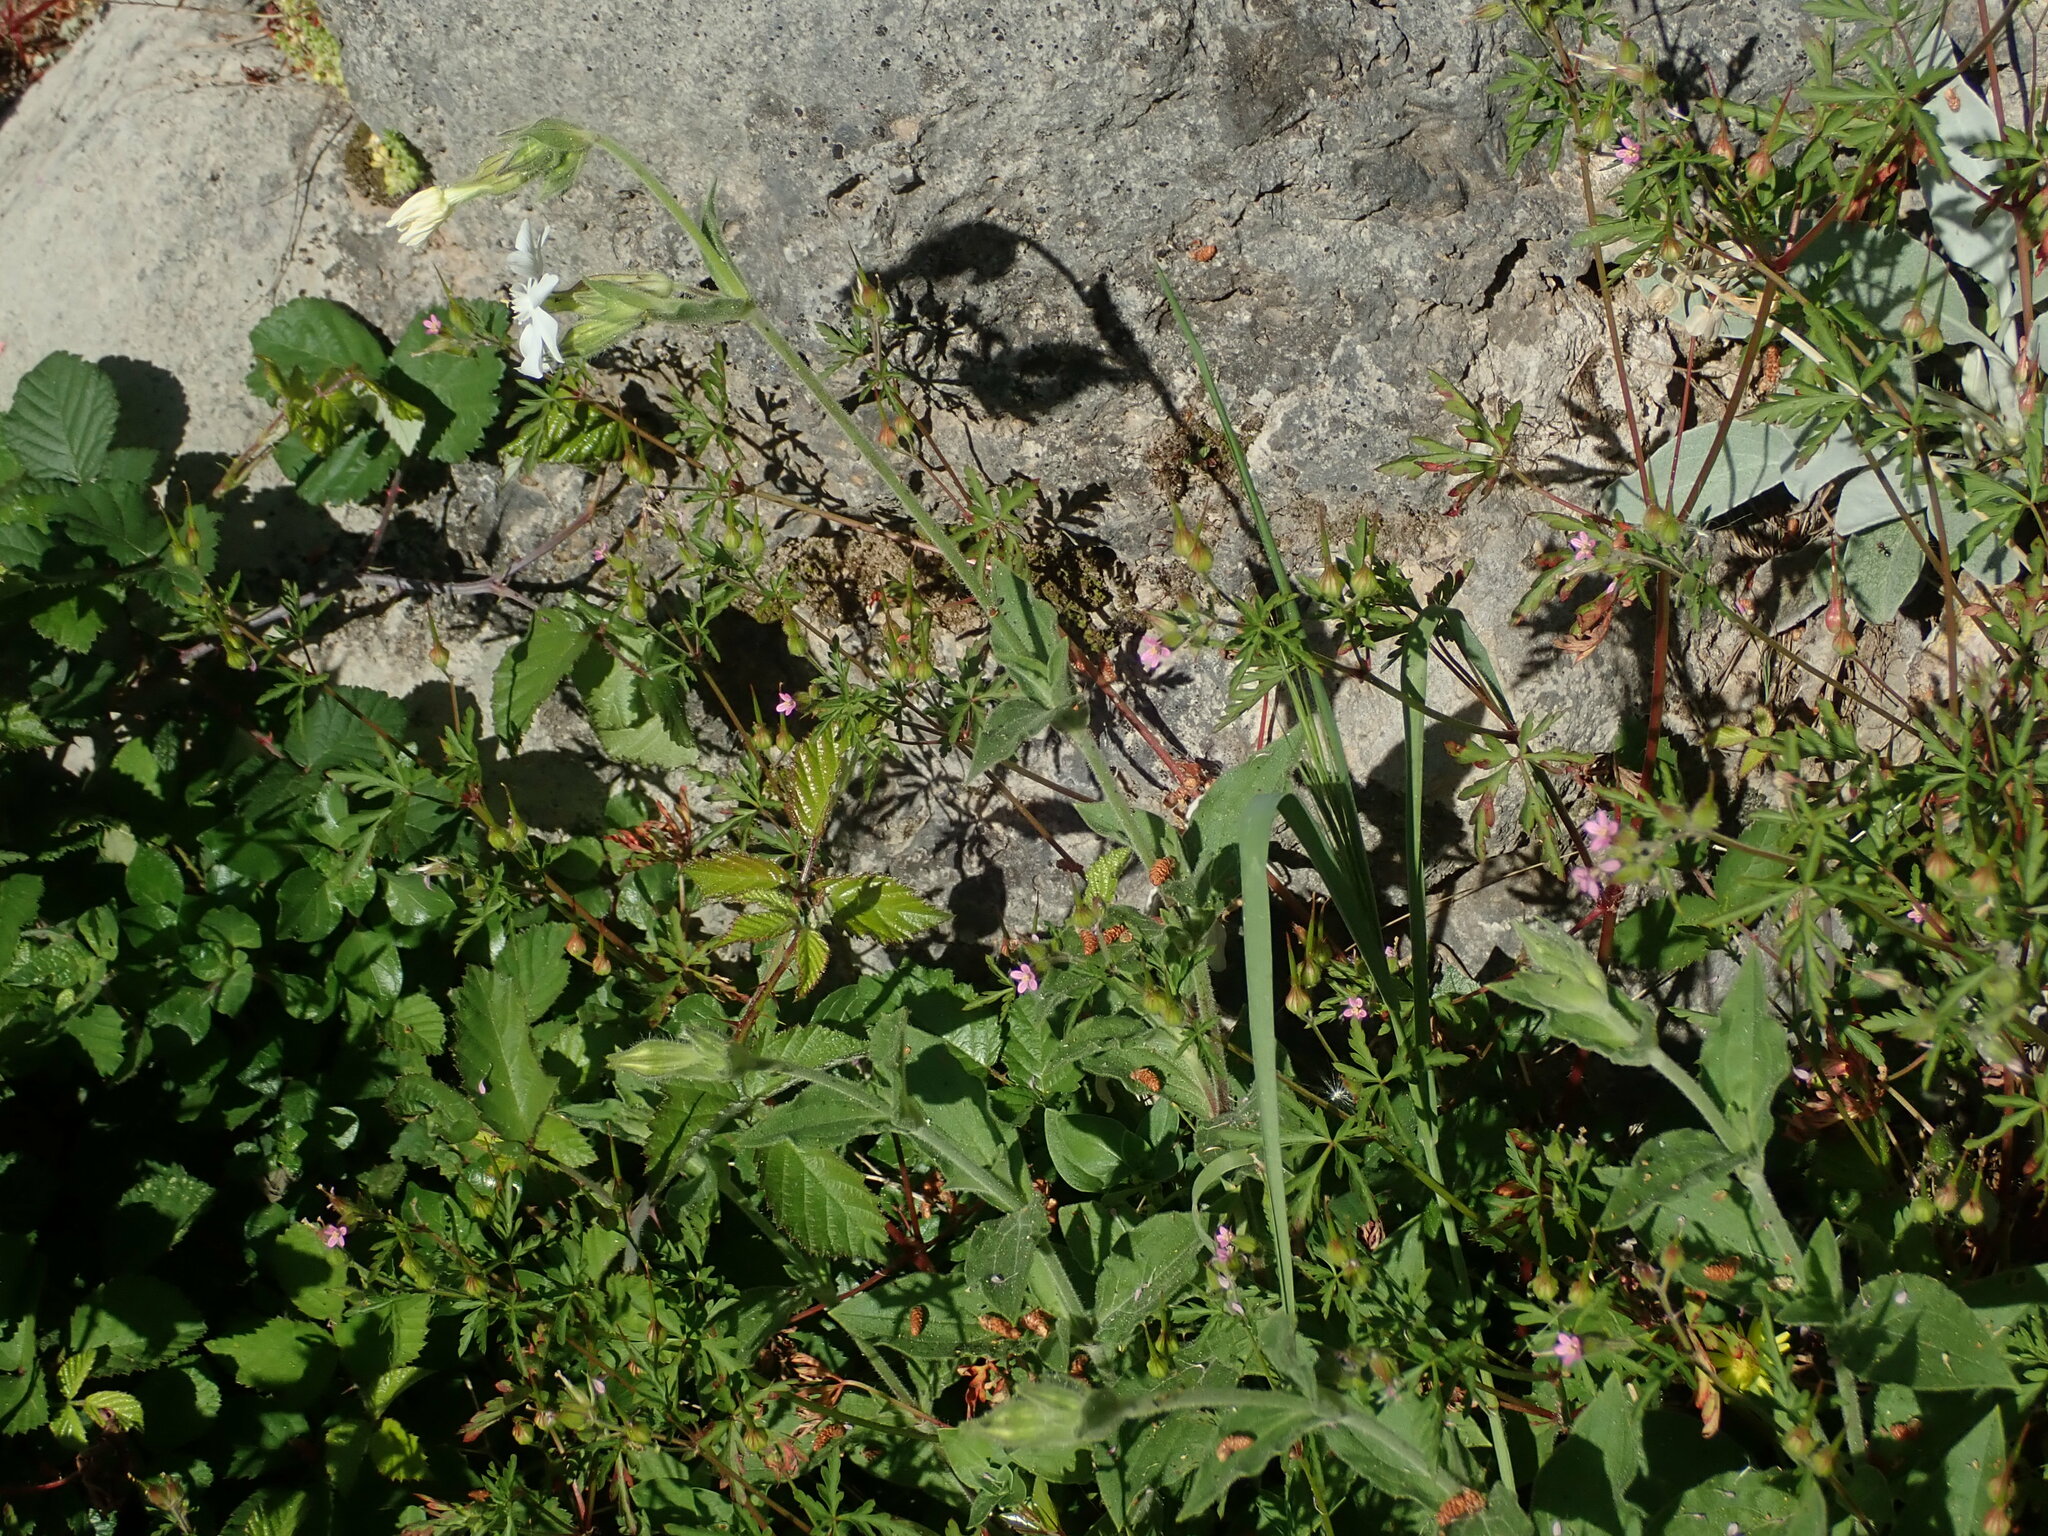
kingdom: Plantae
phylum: Tracheophyta
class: Magnoliopsida
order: Caryophyllales
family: Caryophyllaceae
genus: Silene
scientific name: Silene latifolia
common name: White campion
